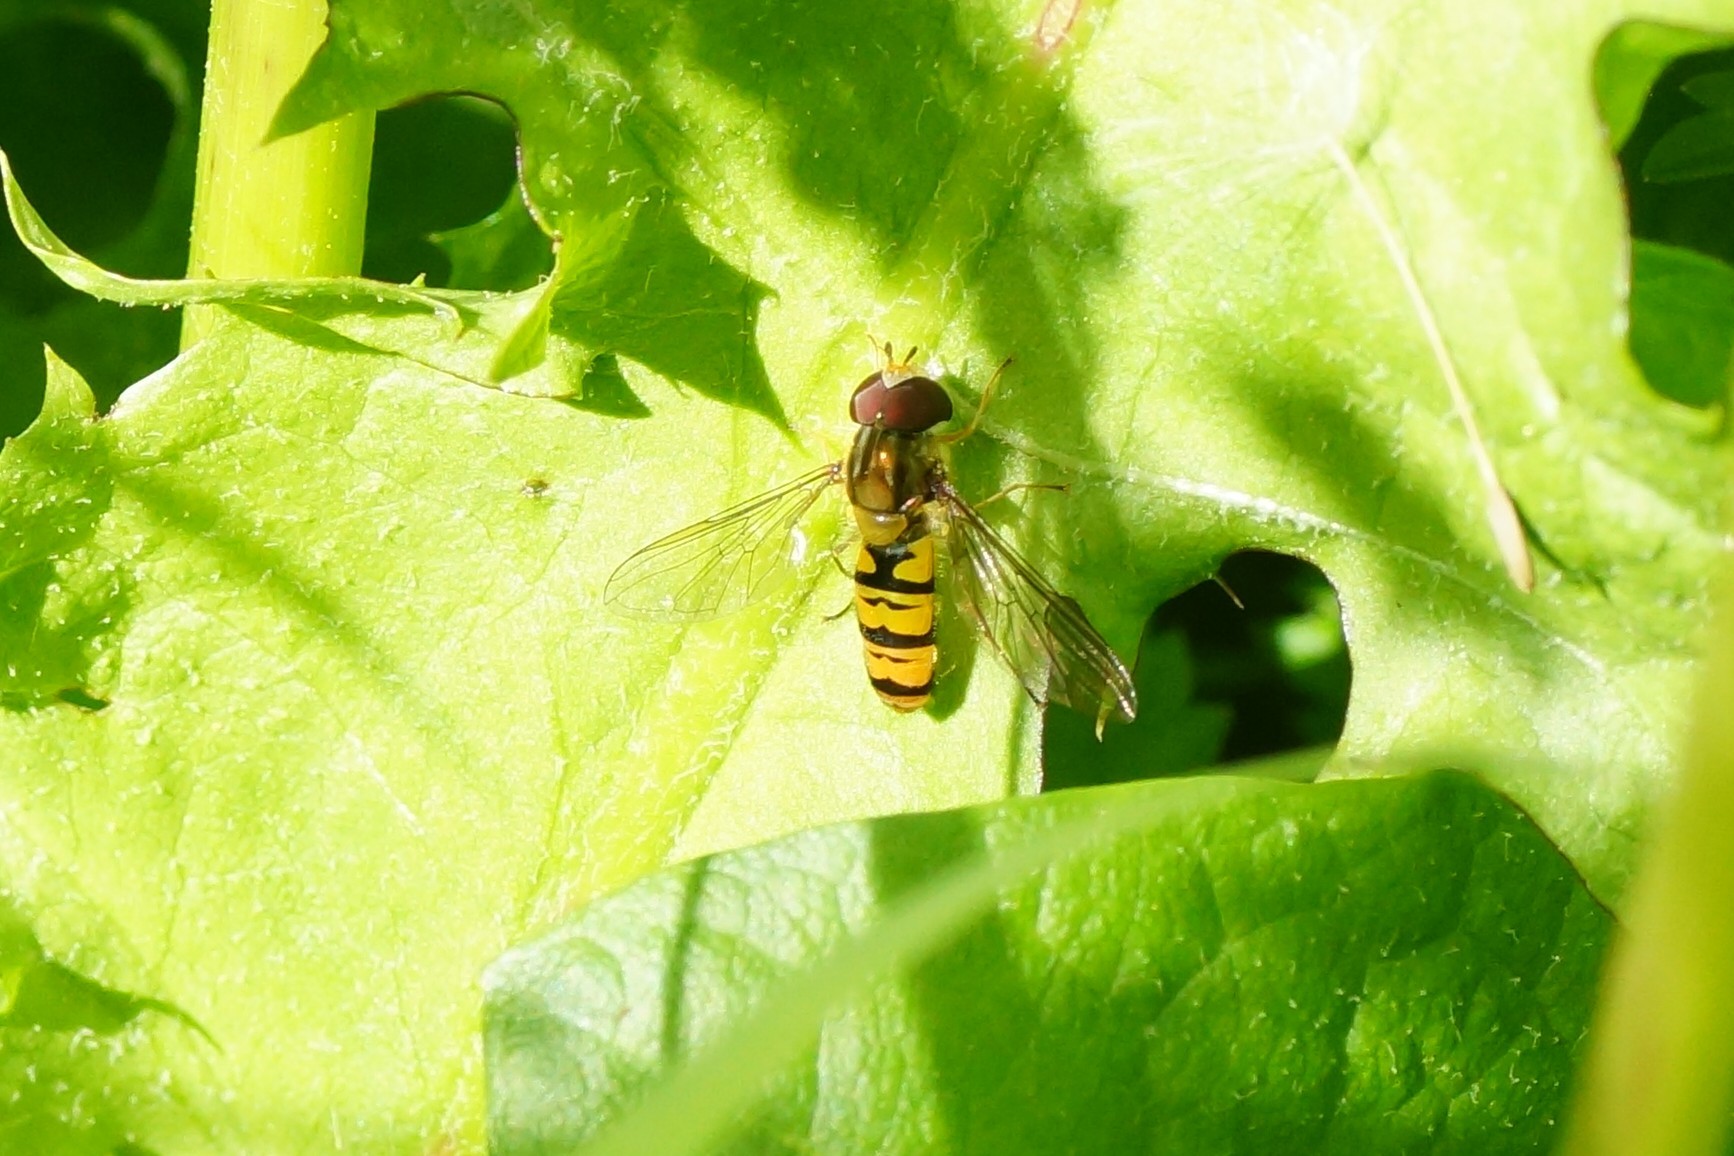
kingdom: Animalia
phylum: Arthropoda
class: Insecta
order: Diptera
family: Syrphidae
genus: Episyrphus
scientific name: Episyrphus balteatus
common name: Marmalade hoverfly
